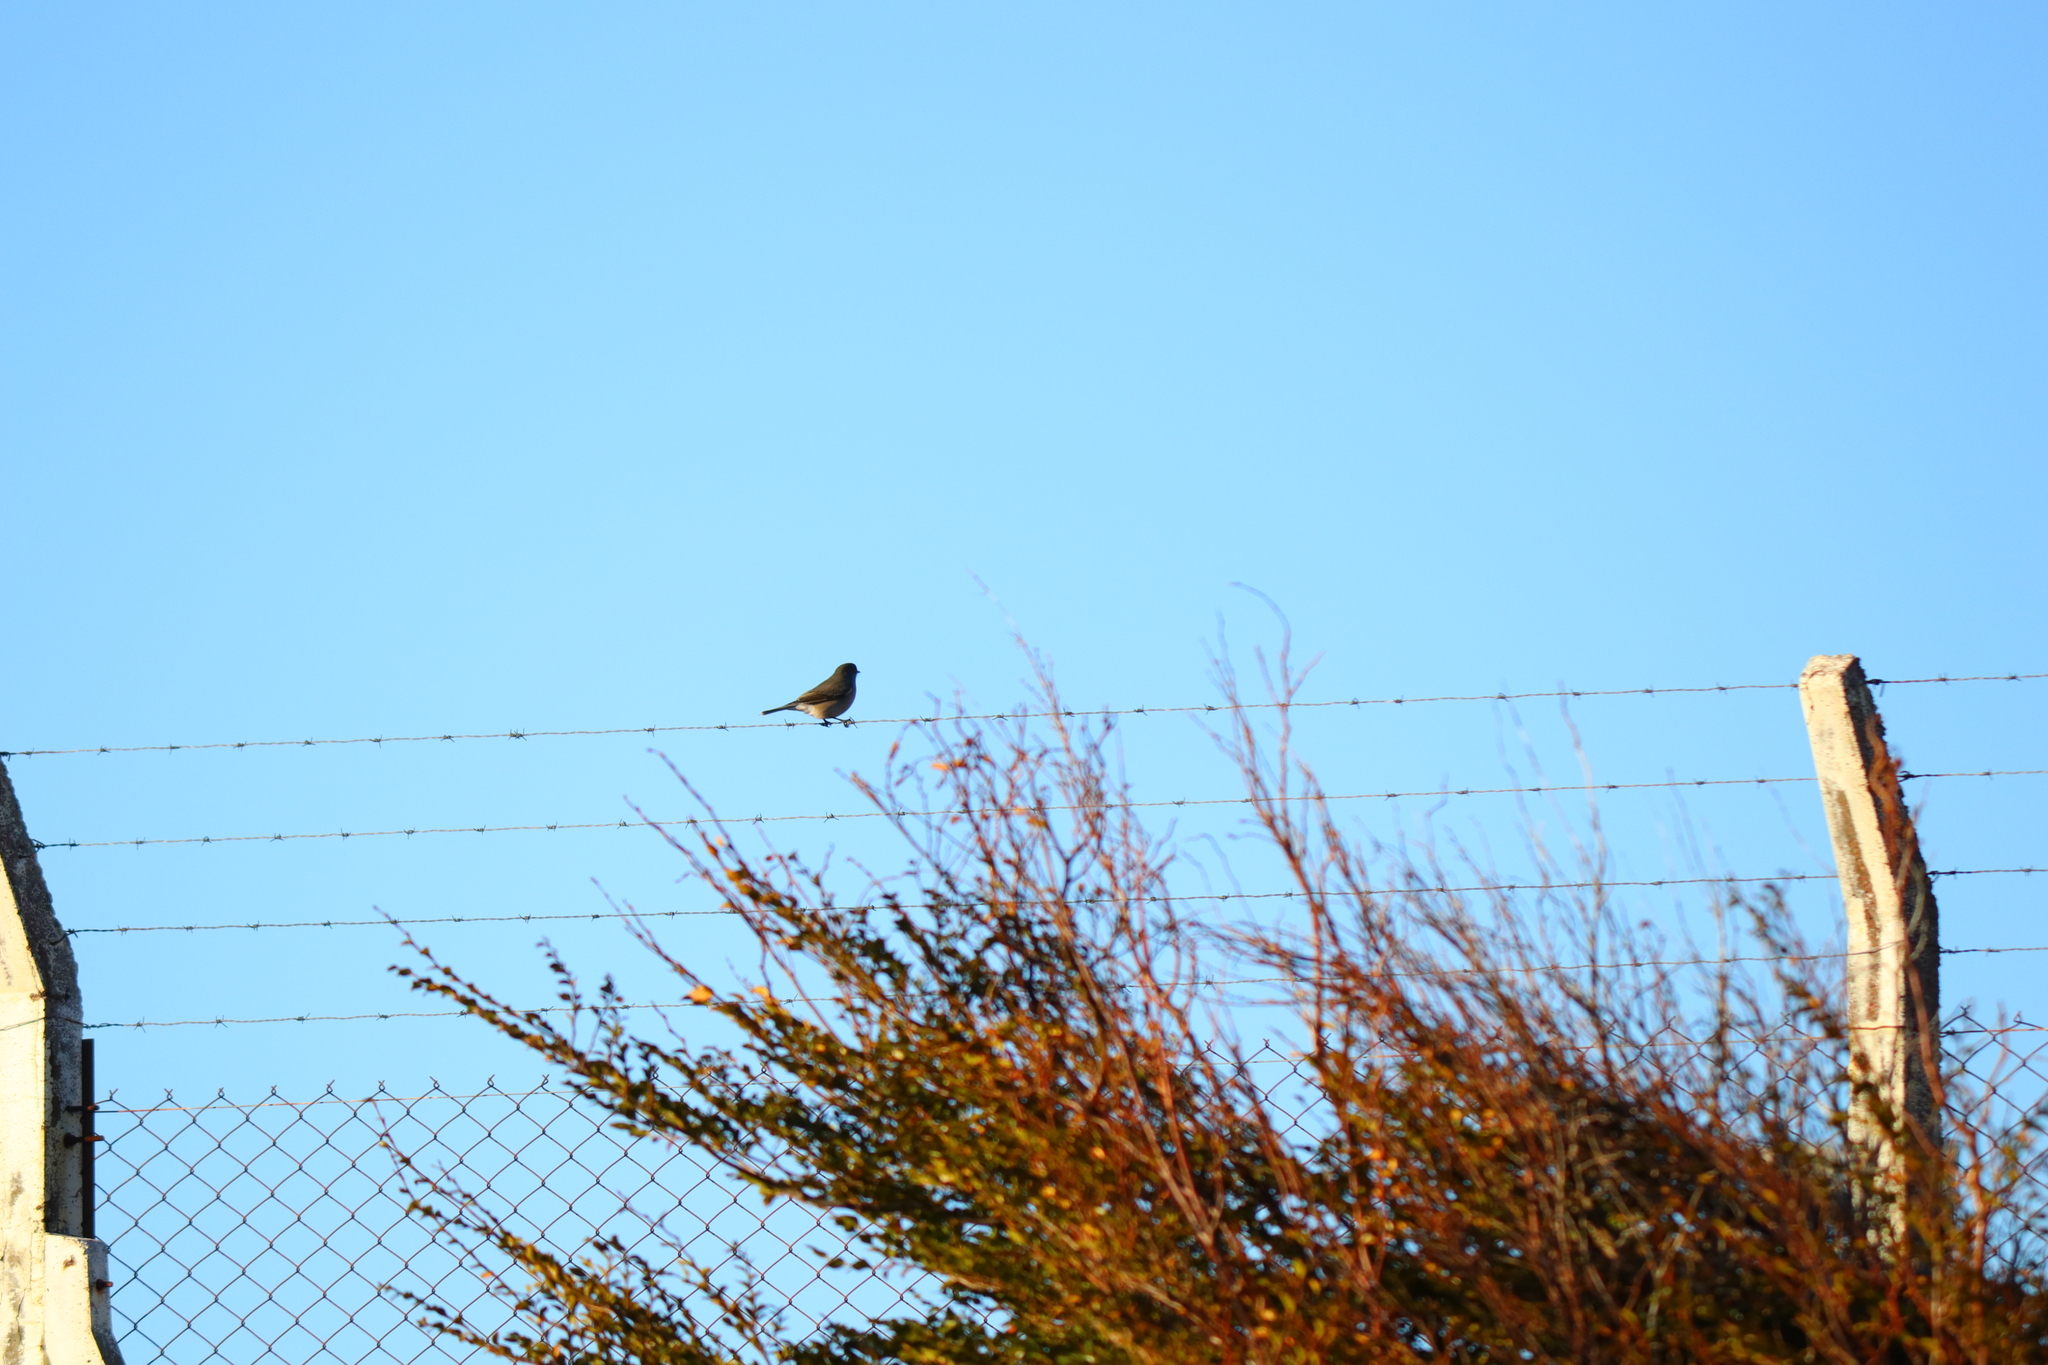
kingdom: Animalia
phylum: Chordata
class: Aves
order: Passeriformes
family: Tyrannidae
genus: Xolmis
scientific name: Xolmis pyrope
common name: Fire-eyed diucon
